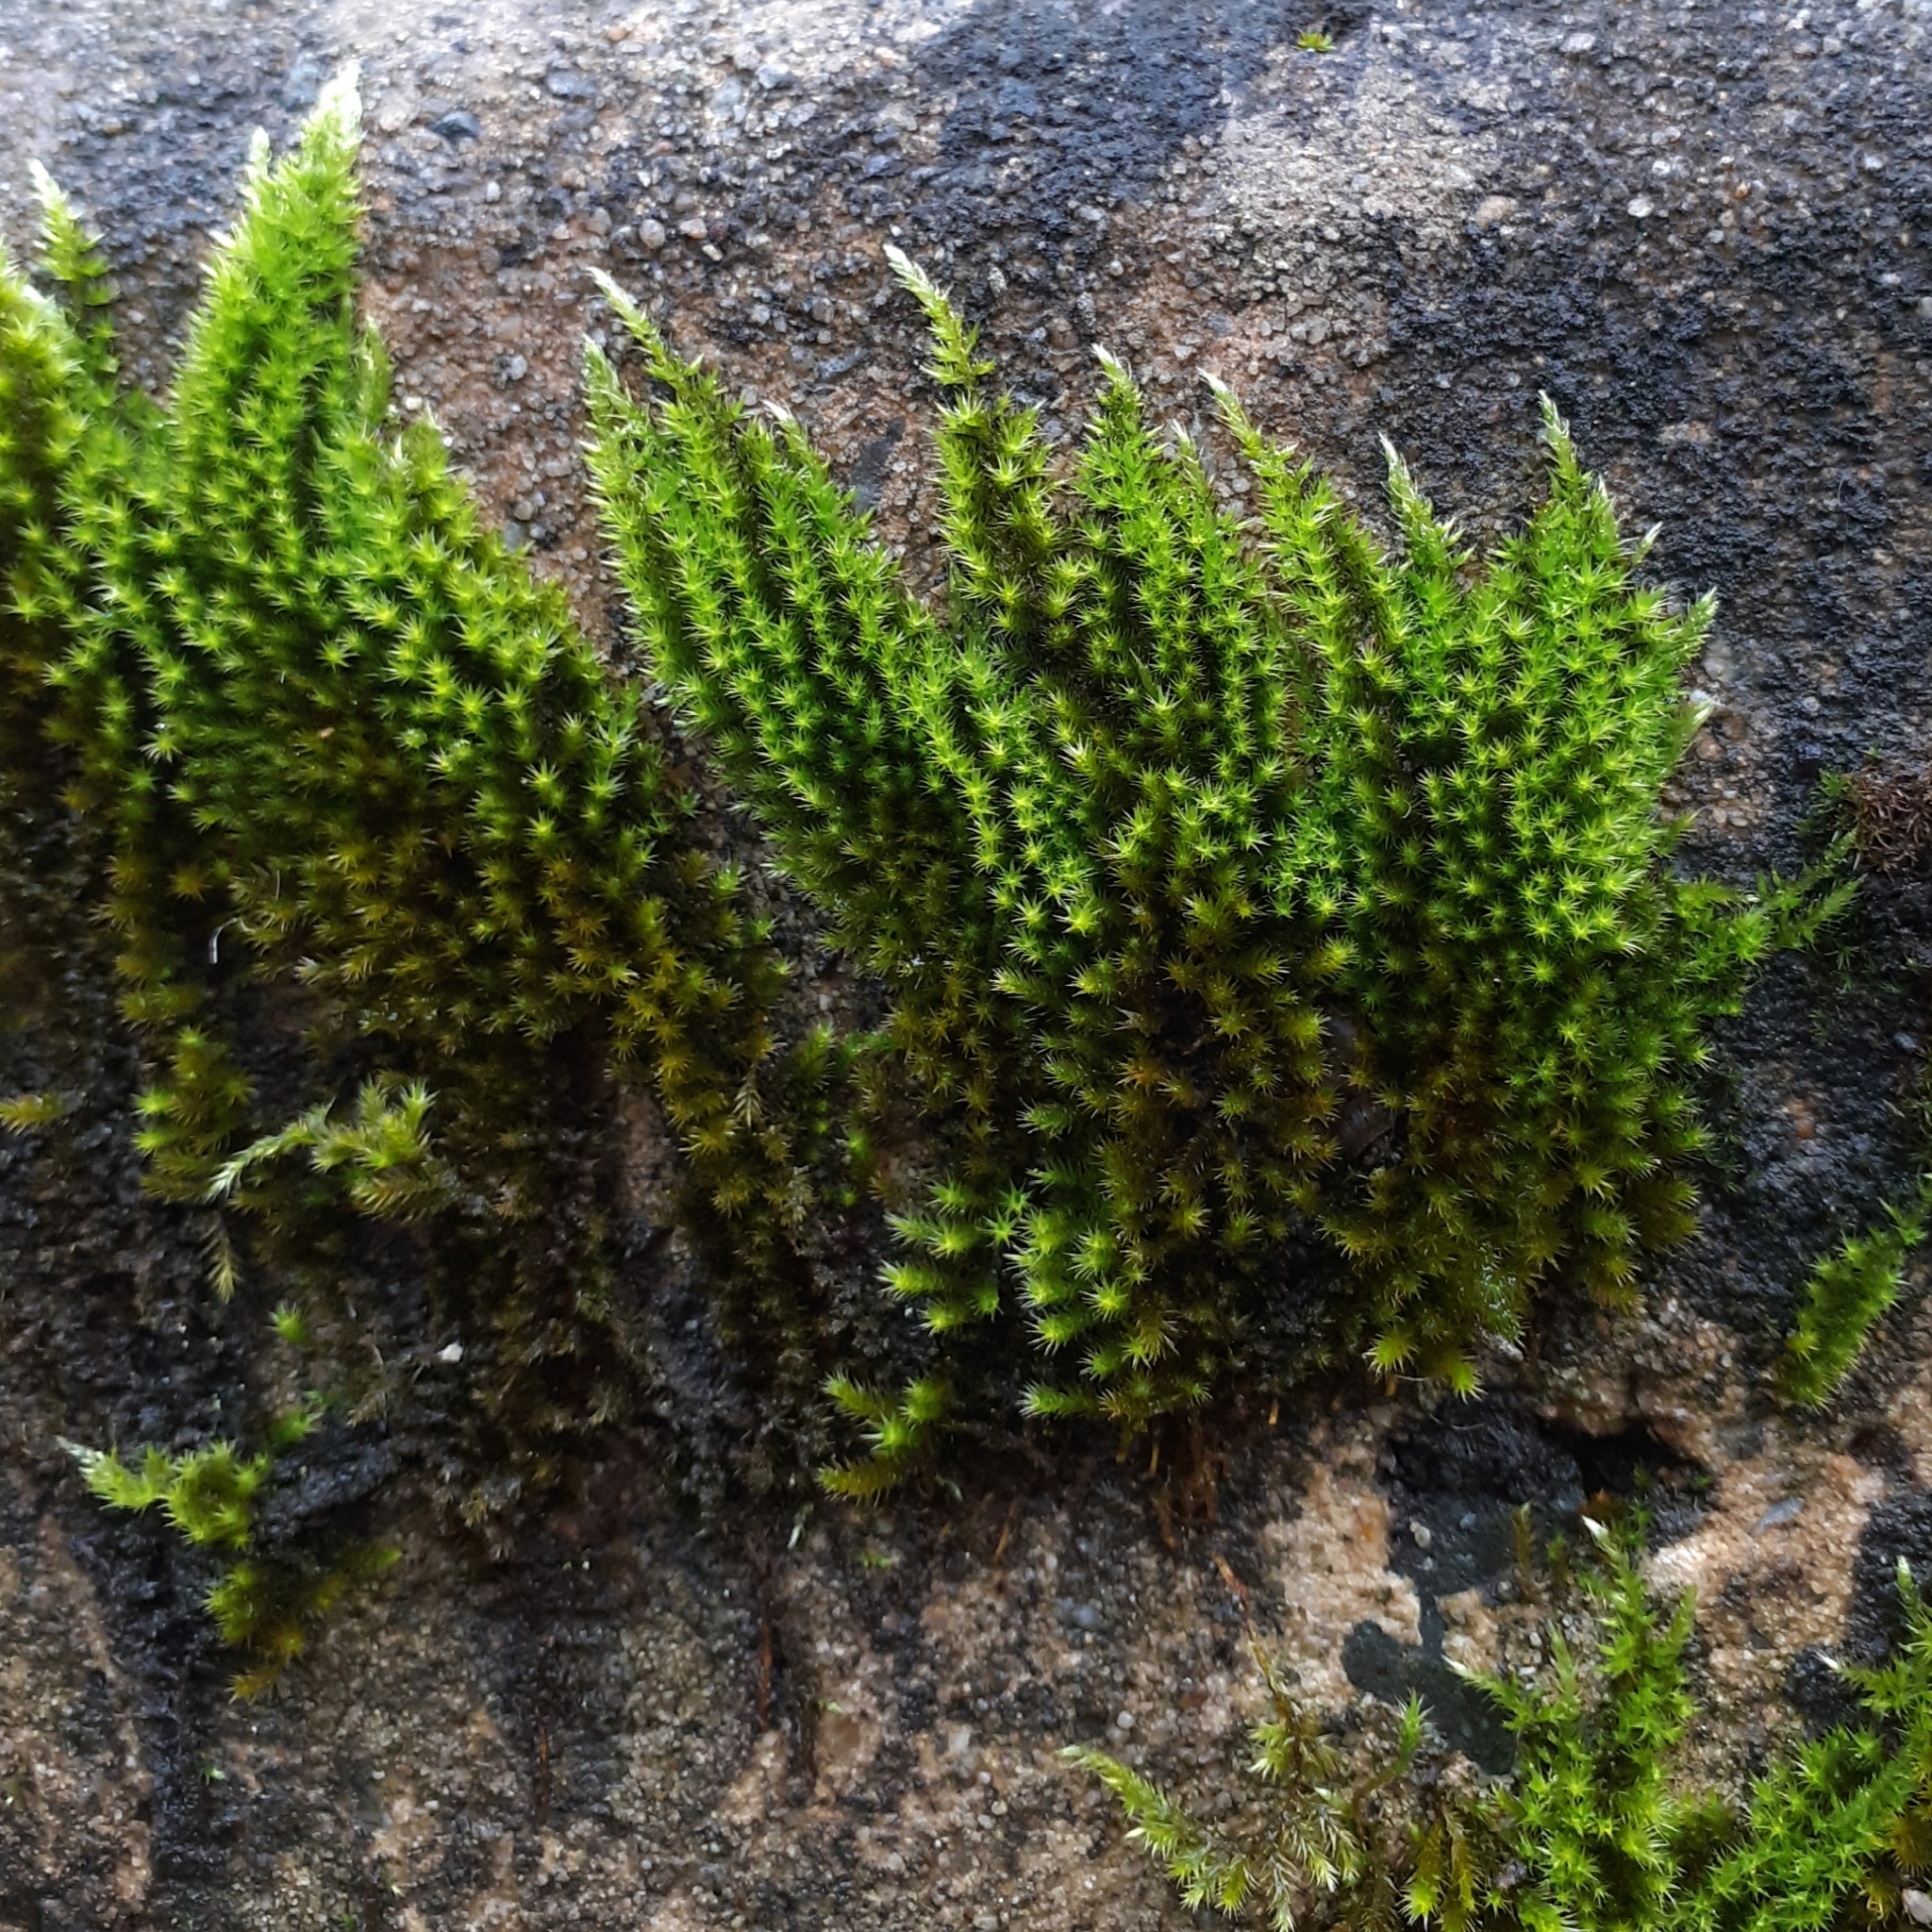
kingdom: Plantae
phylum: Bryophyta
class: Bryopsida
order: Hypnales
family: Brachytheciaceae
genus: Homalothecium
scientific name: Homalothecium sericeum
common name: Silky wall feather-moss
